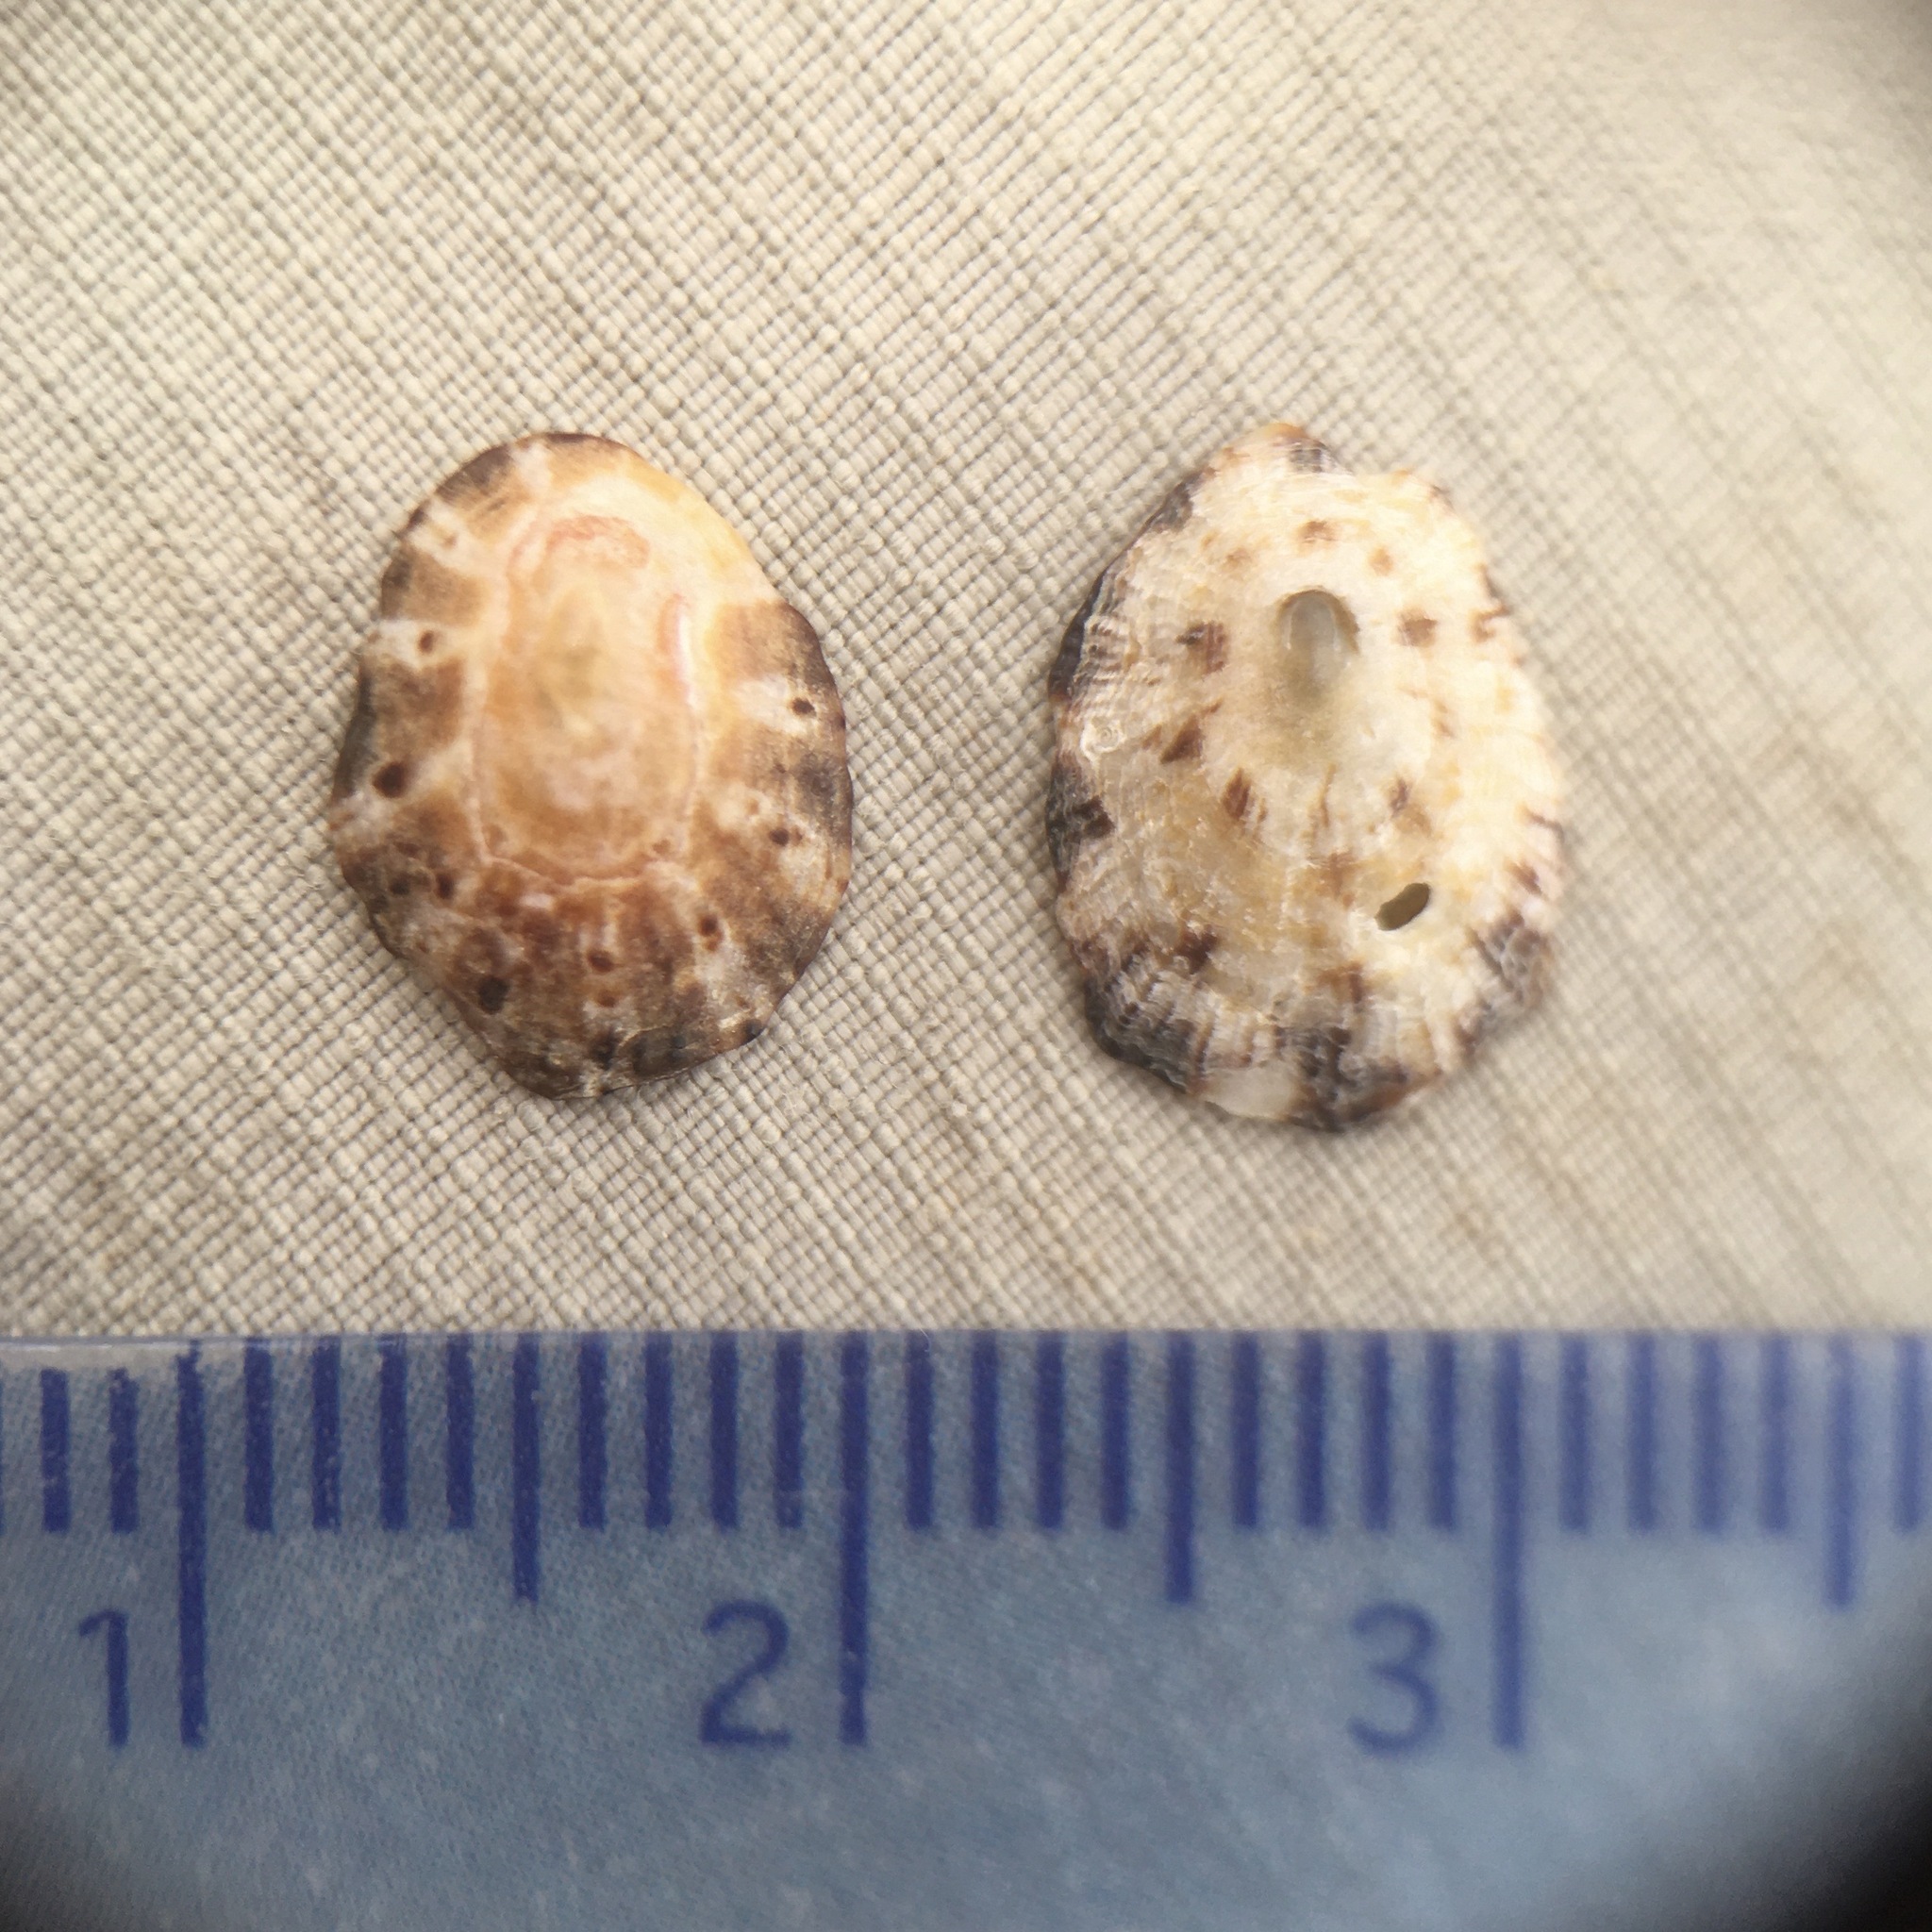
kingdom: Animalia
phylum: Mollusca
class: Gastropoda
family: Patellidae
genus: Patella
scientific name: Patella rustica
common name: Lusitanian limpet
